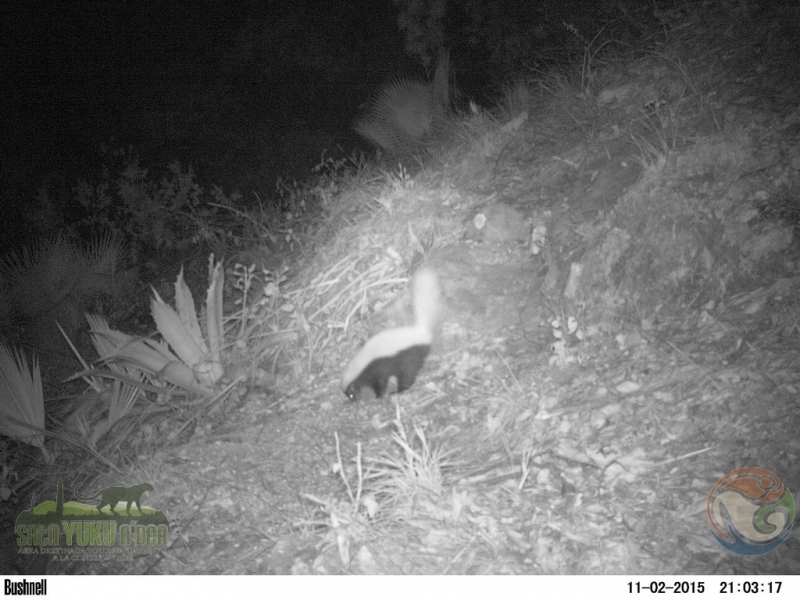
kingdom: Animalia
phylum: Chordata
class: Mammalia
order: Carnivora
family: Mephitidae
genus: Conepatus
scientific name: Conepatus leuconotus
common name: Eastern hog-nosed skunk
